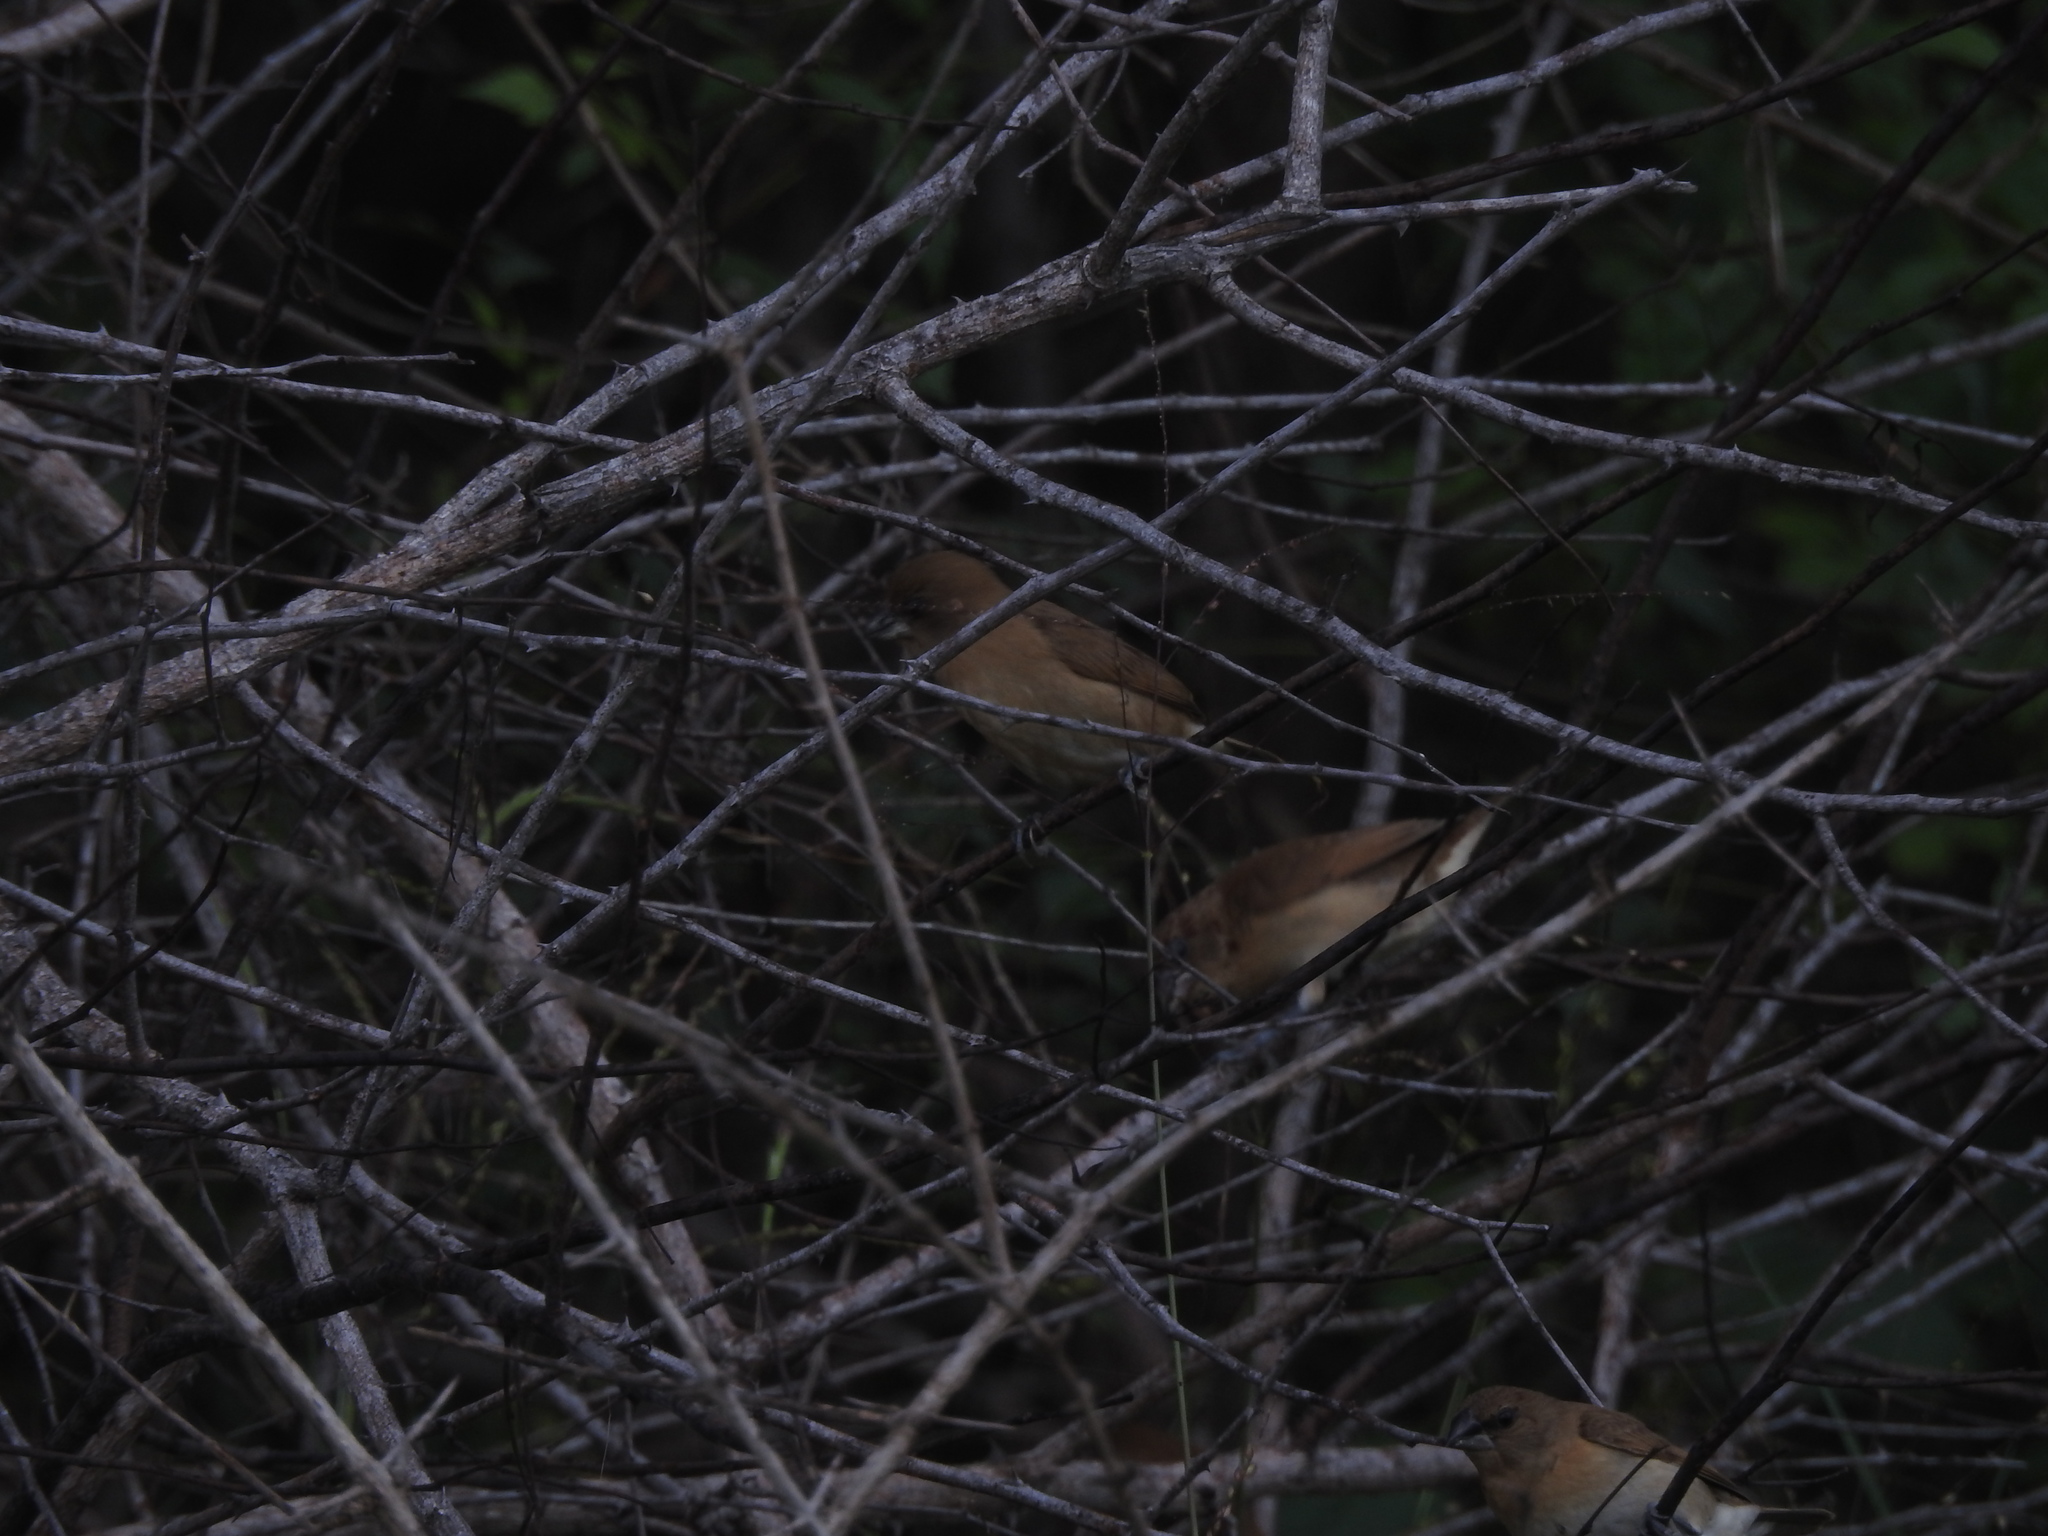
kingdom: Animalia
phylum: Chordata
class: Aves
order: Passeriformes
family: Estrildidae
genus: Lonchura
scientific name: Lonchura punctulata
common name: Scaly-breasted munia
